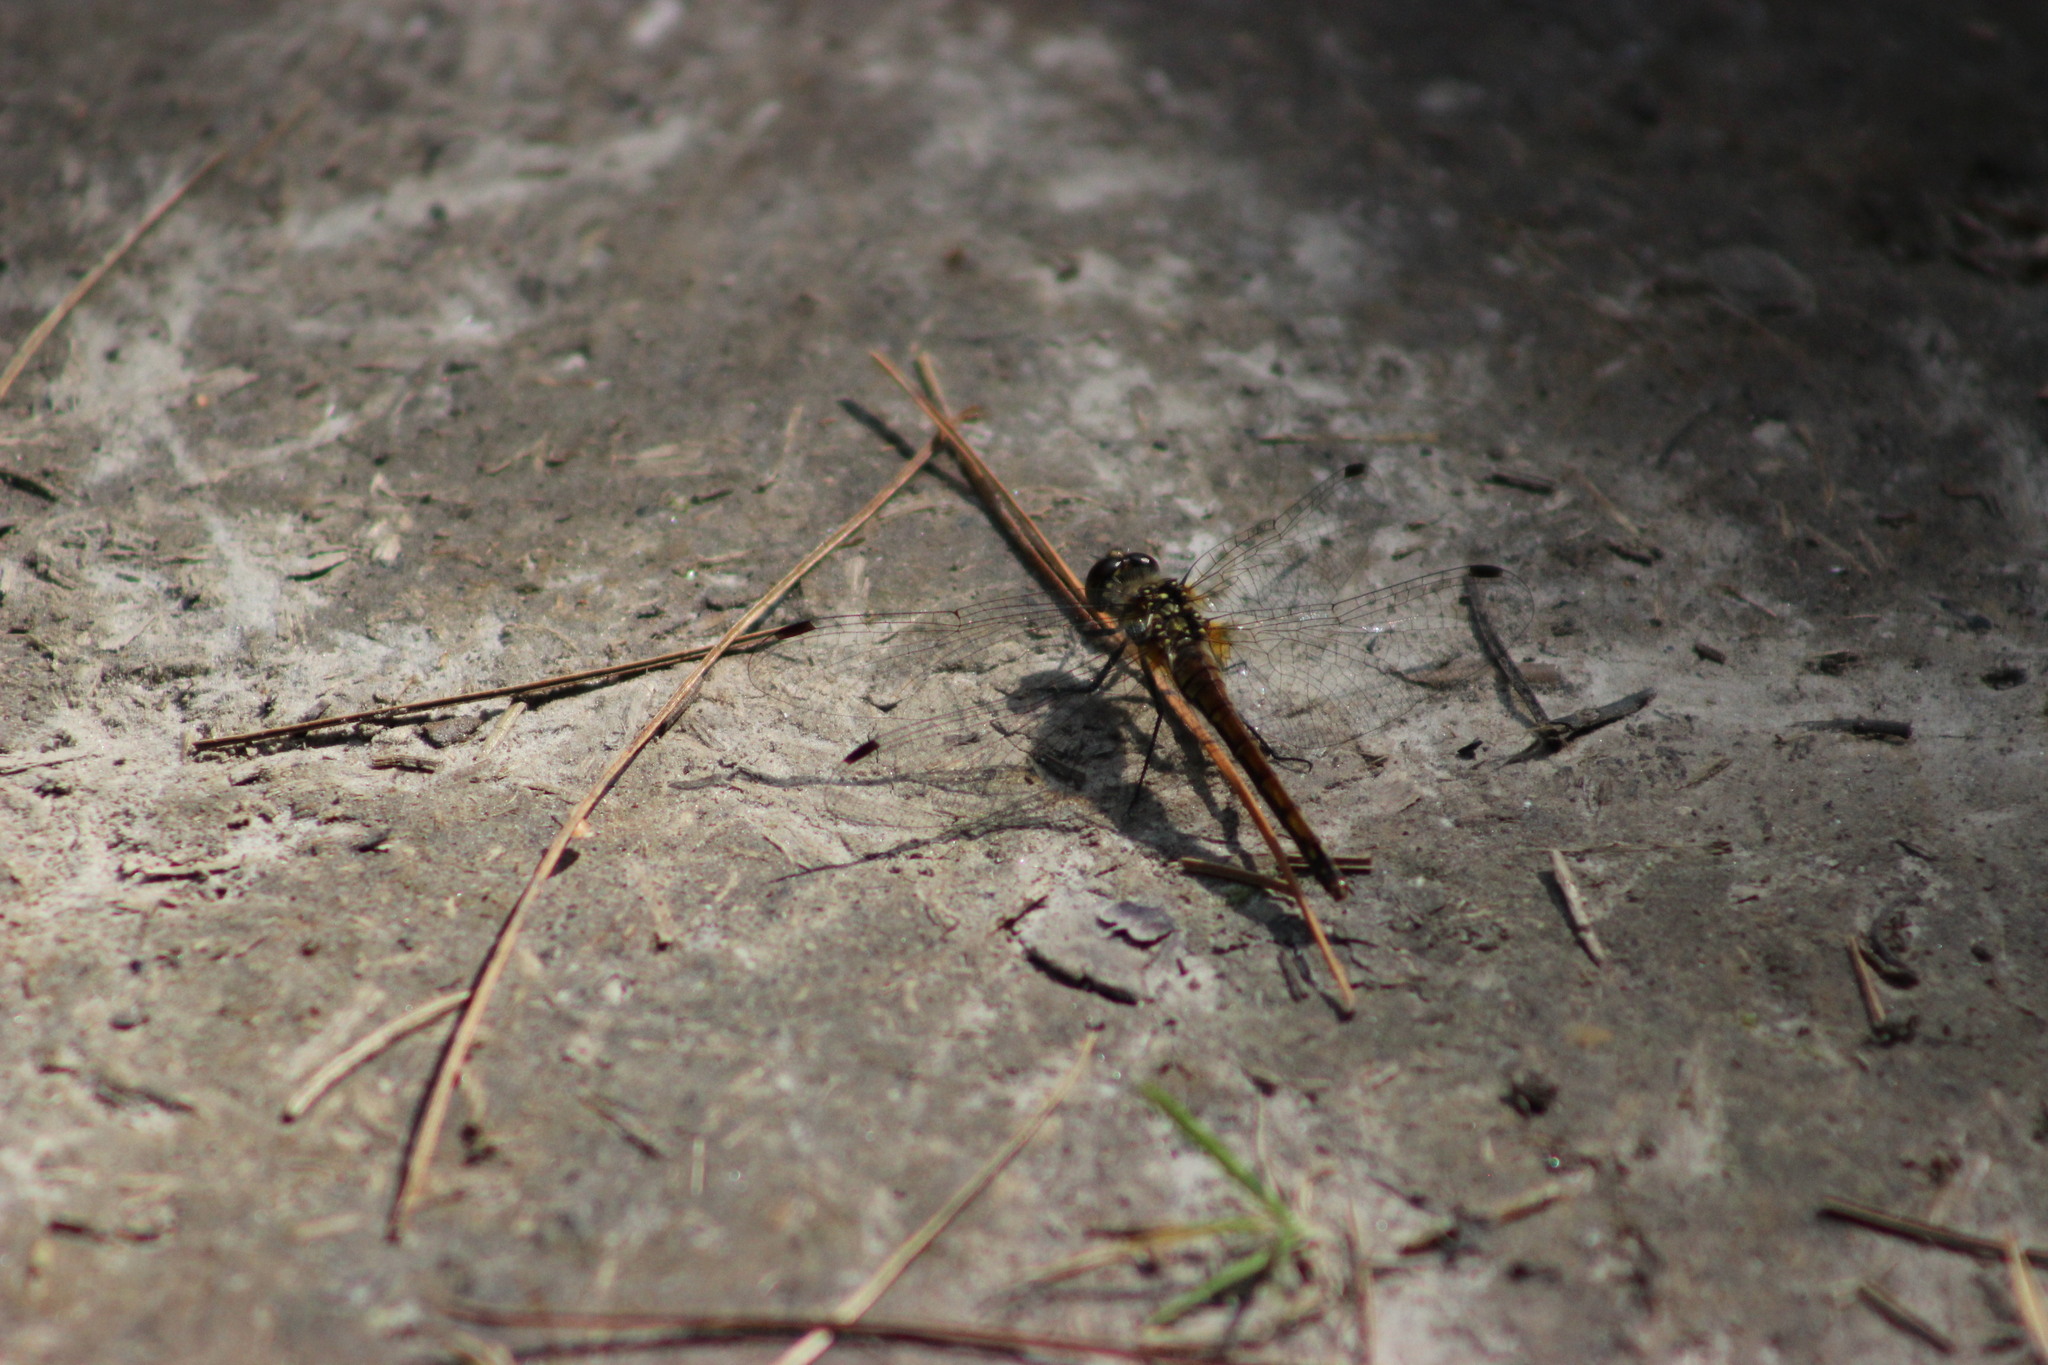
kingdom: Animalia
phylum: Arthropoda
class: Insecta
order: Odonata
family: Libellulidae
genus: Sympetrum
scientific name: Sympetrum danae
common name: Black darter
